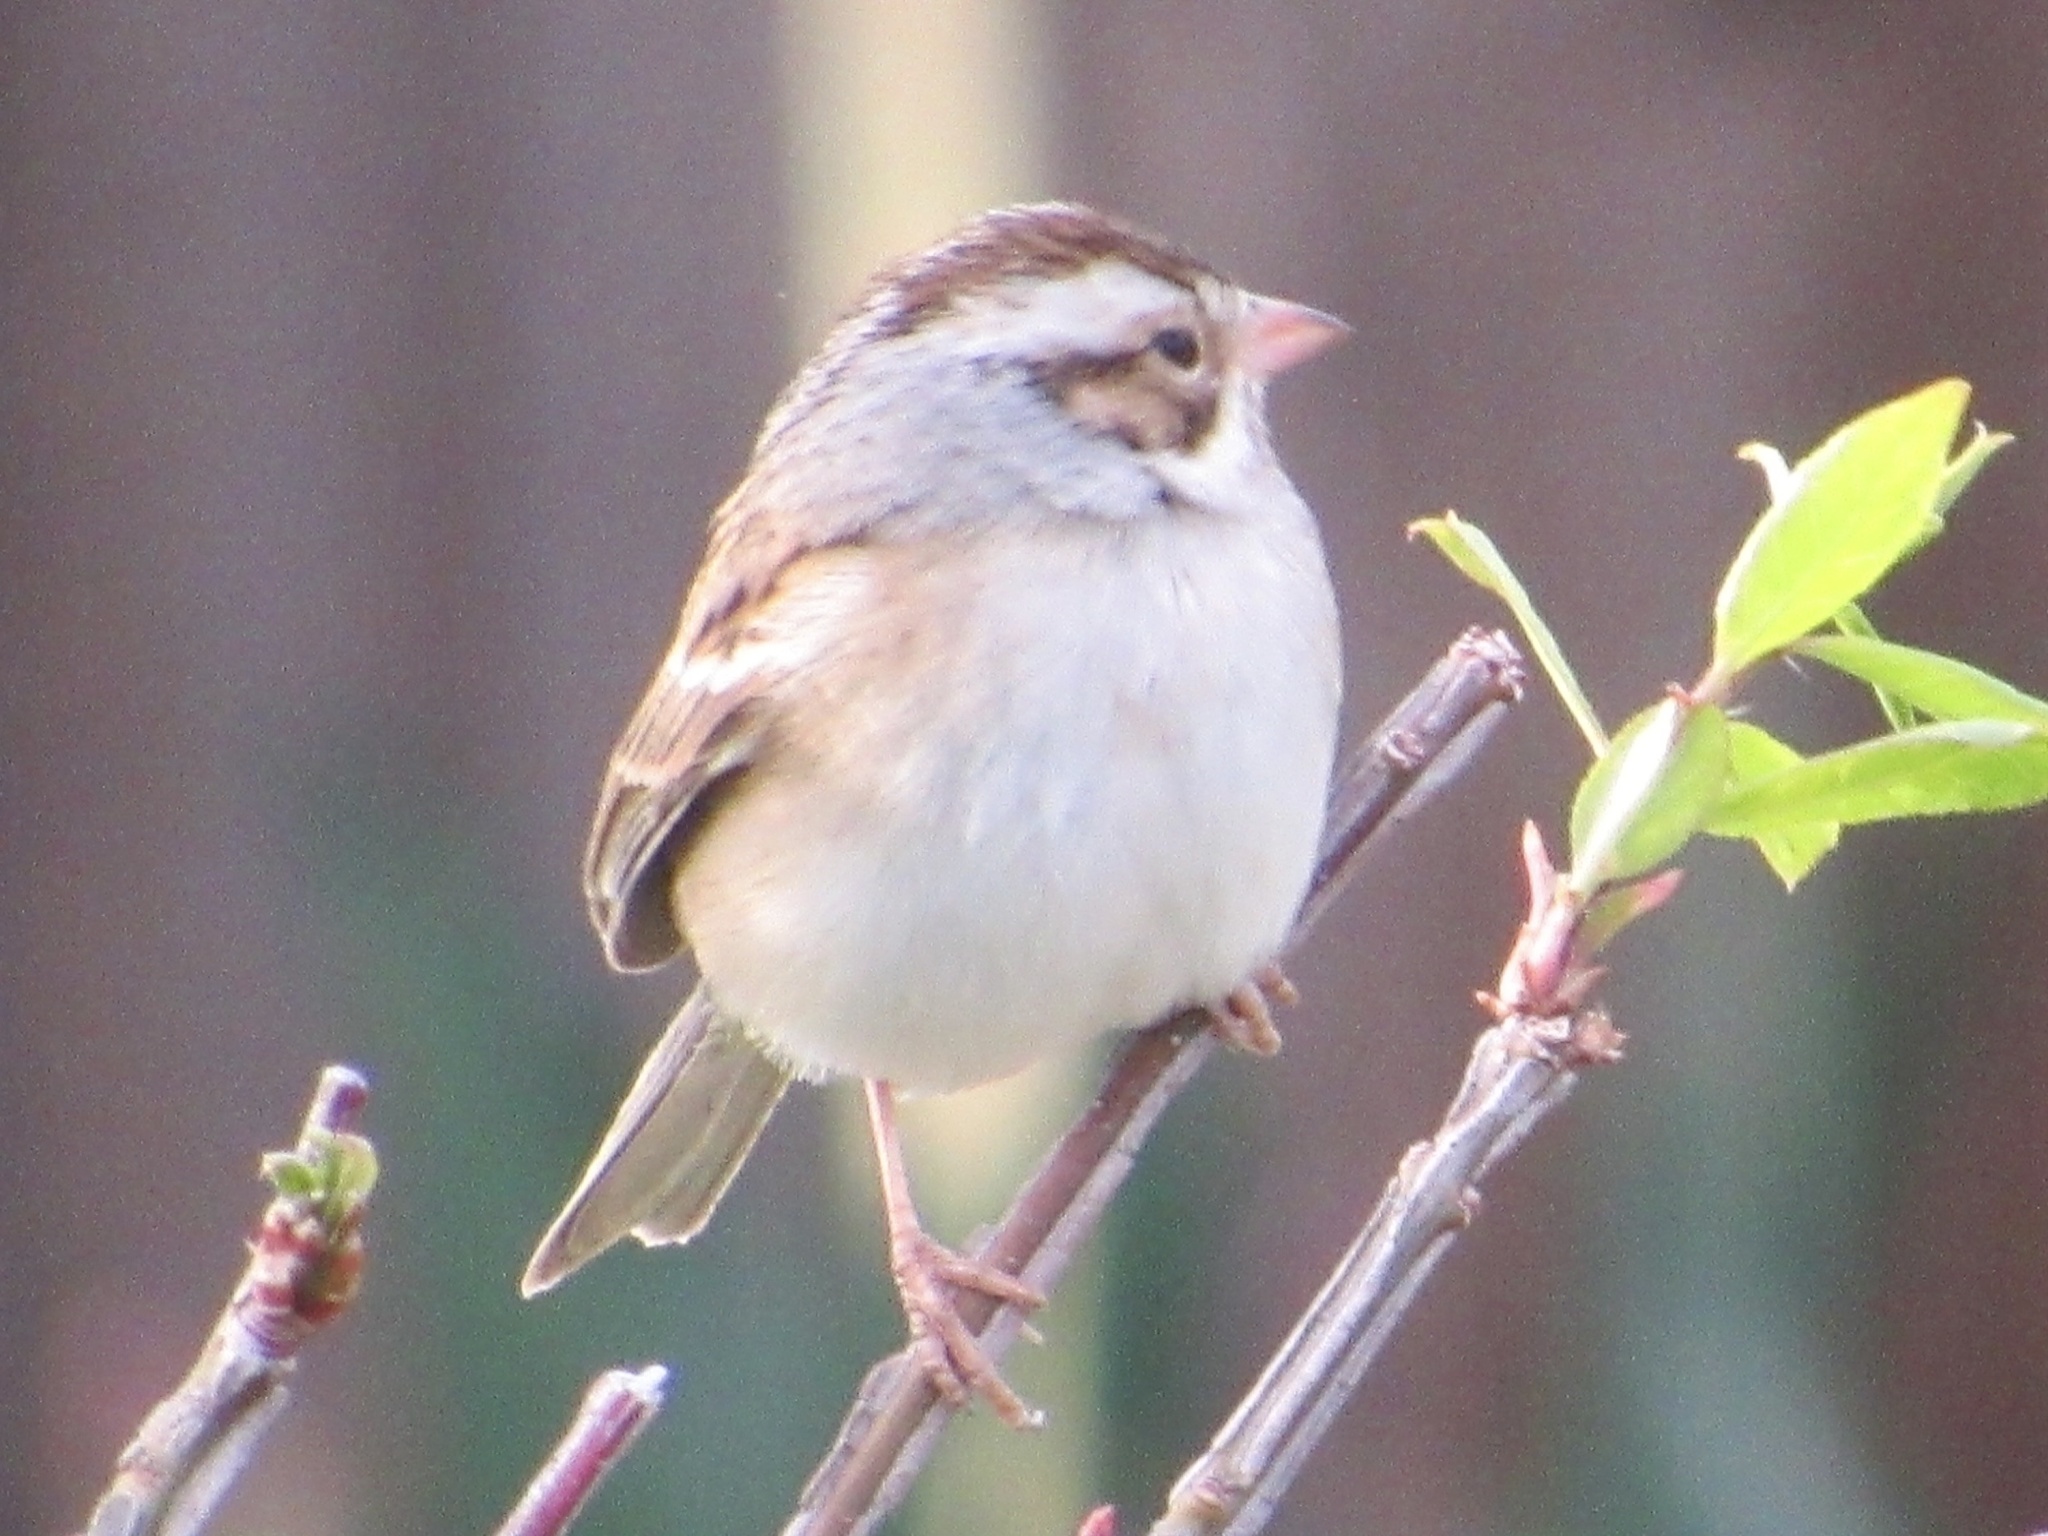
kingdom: Animalia
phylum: Chordata
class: Aves
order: Passeriformes
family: Passerellidae
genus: Spizella
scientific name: Spizella pallida
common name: Clay-colored sparrow
